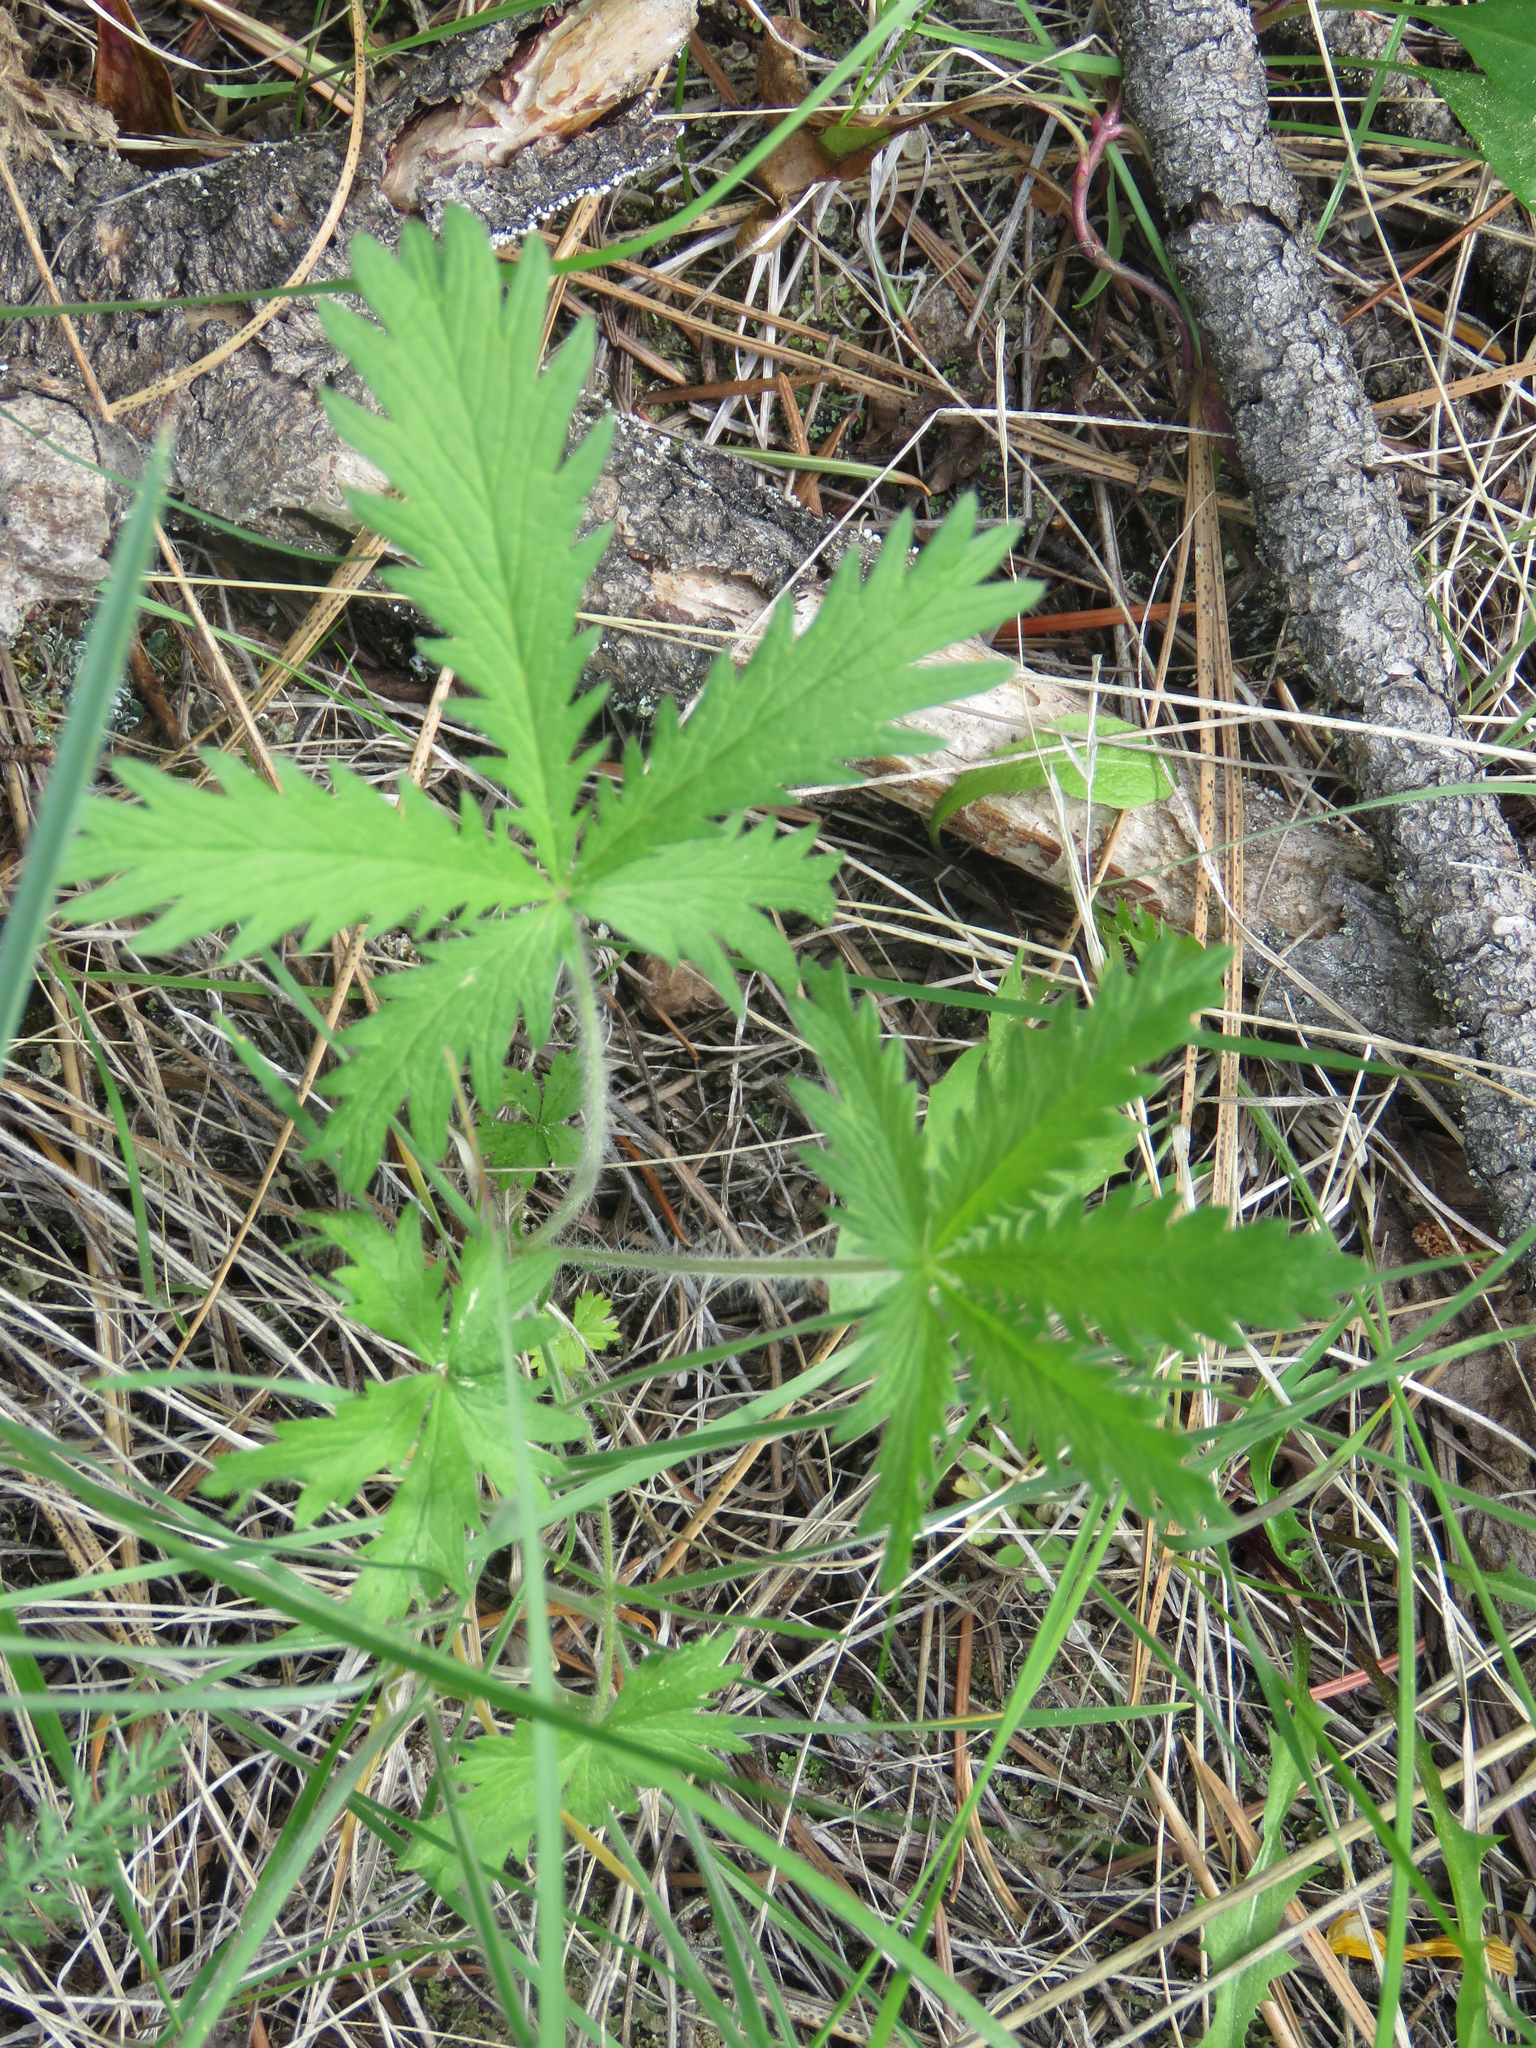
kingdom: Plantae
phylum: Tracheophyta
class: Magnoliopsida
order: Rosales
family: Rosaceae
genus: Potentilla
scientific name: Potentilla recta
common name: Sulphur cinquefoil
